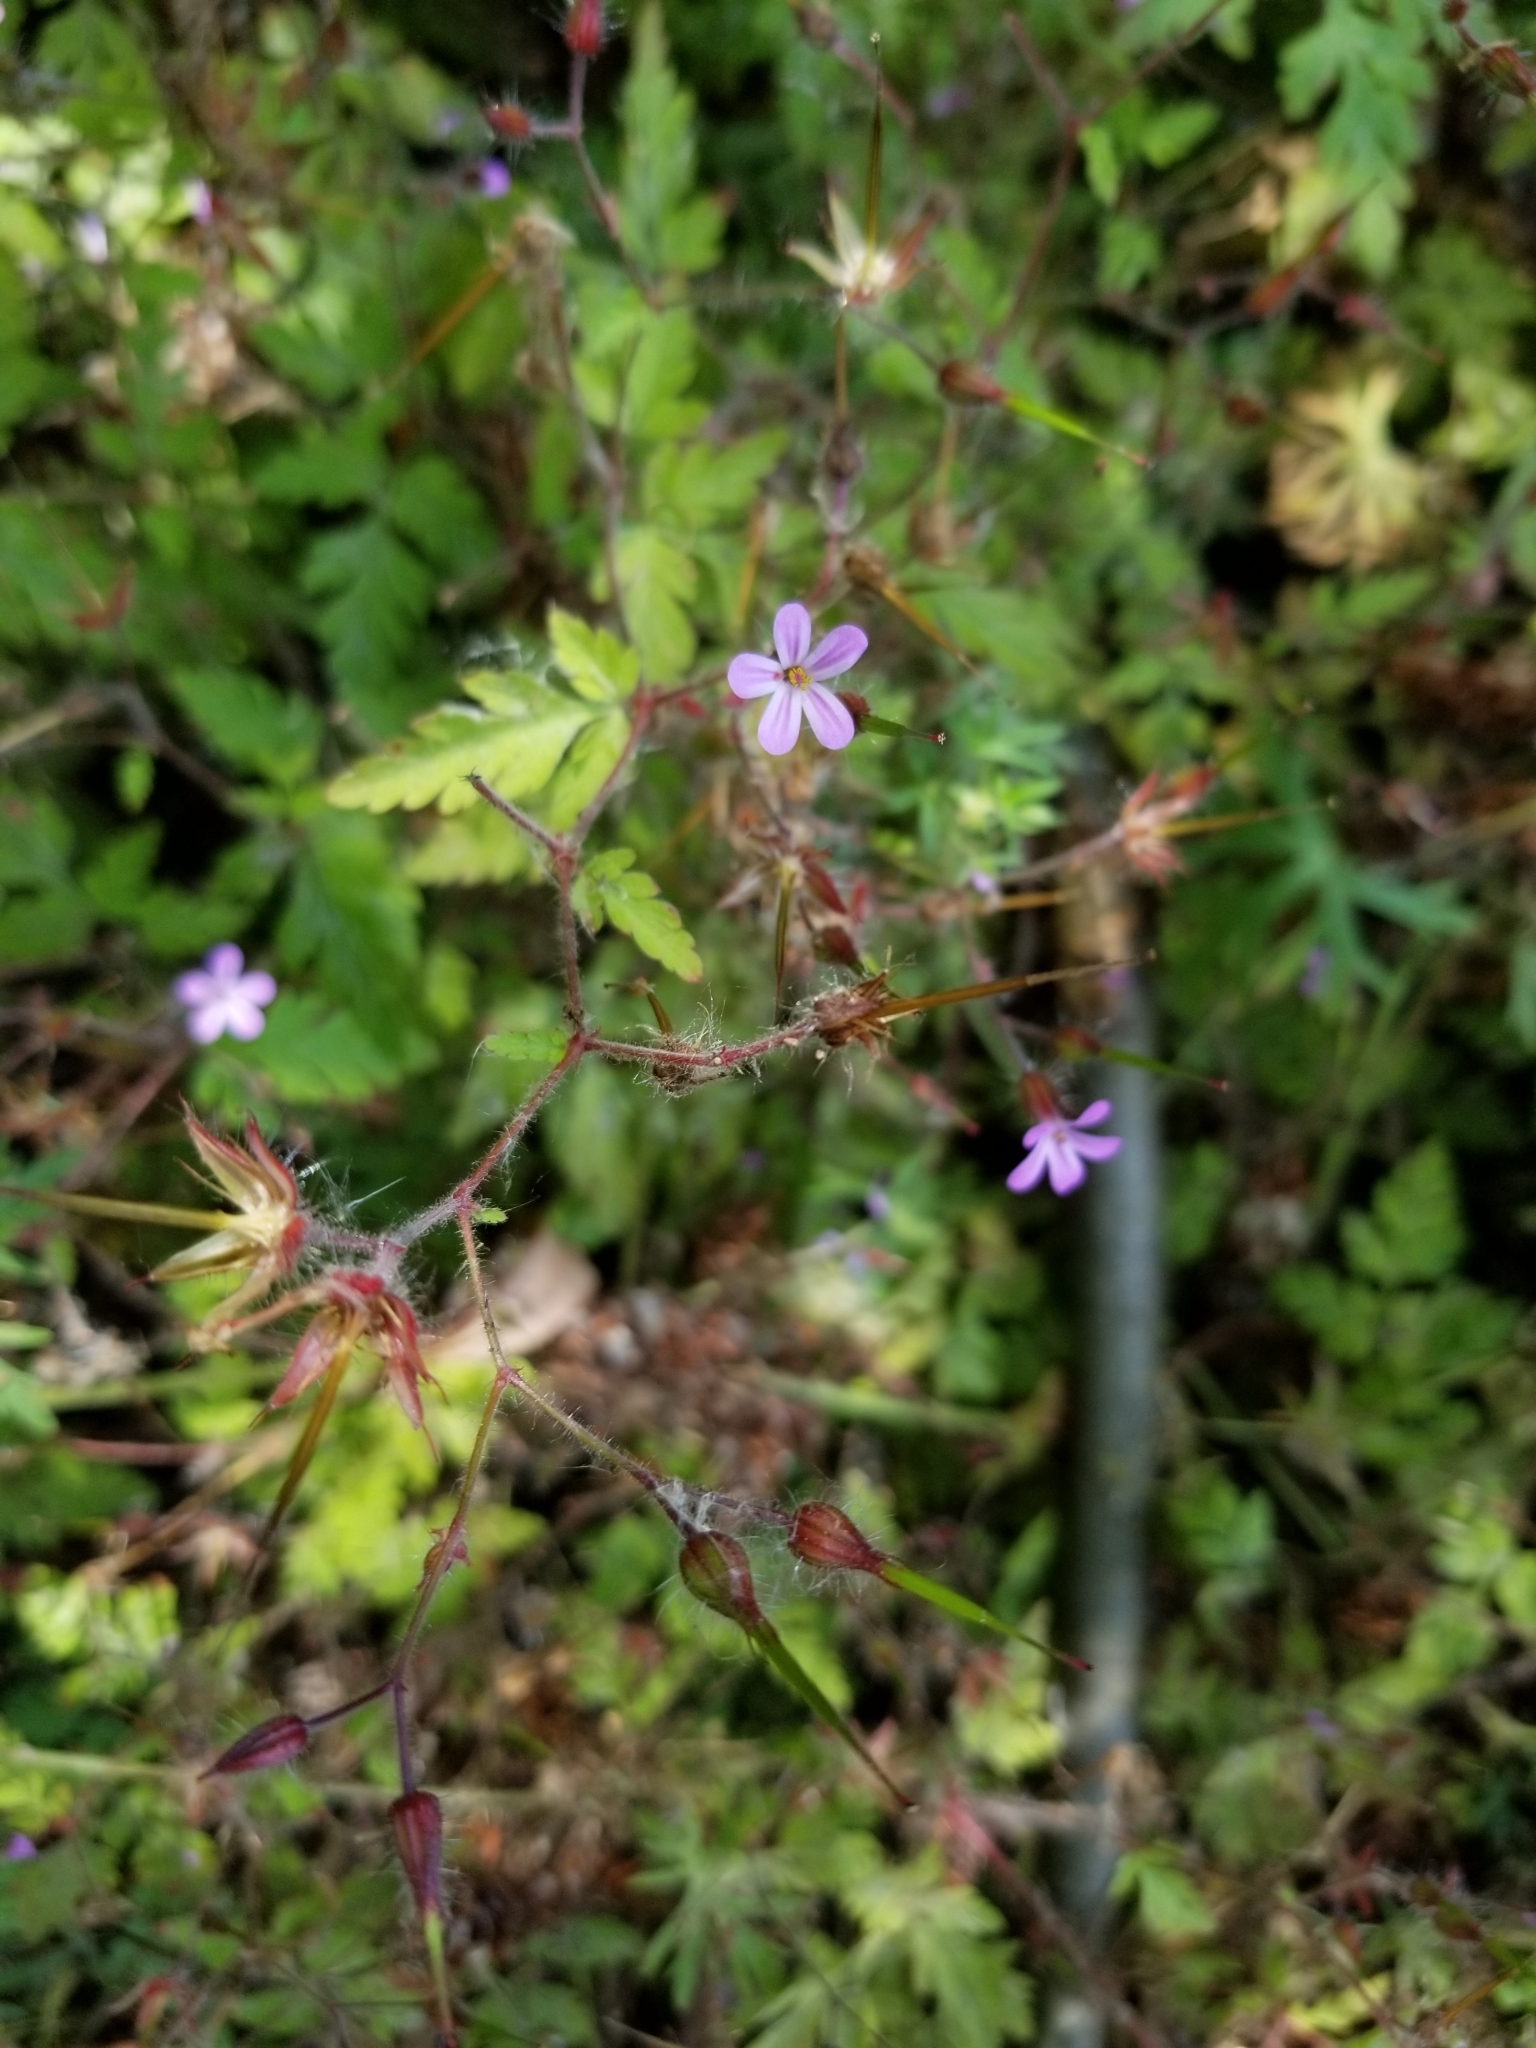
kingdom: Plantae
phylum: Tracheophyta
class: Magnoliopsida
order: Geraniales
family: Geraniaceae
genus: Geranium
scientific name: Geranium robertianum
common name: Herb-robert
